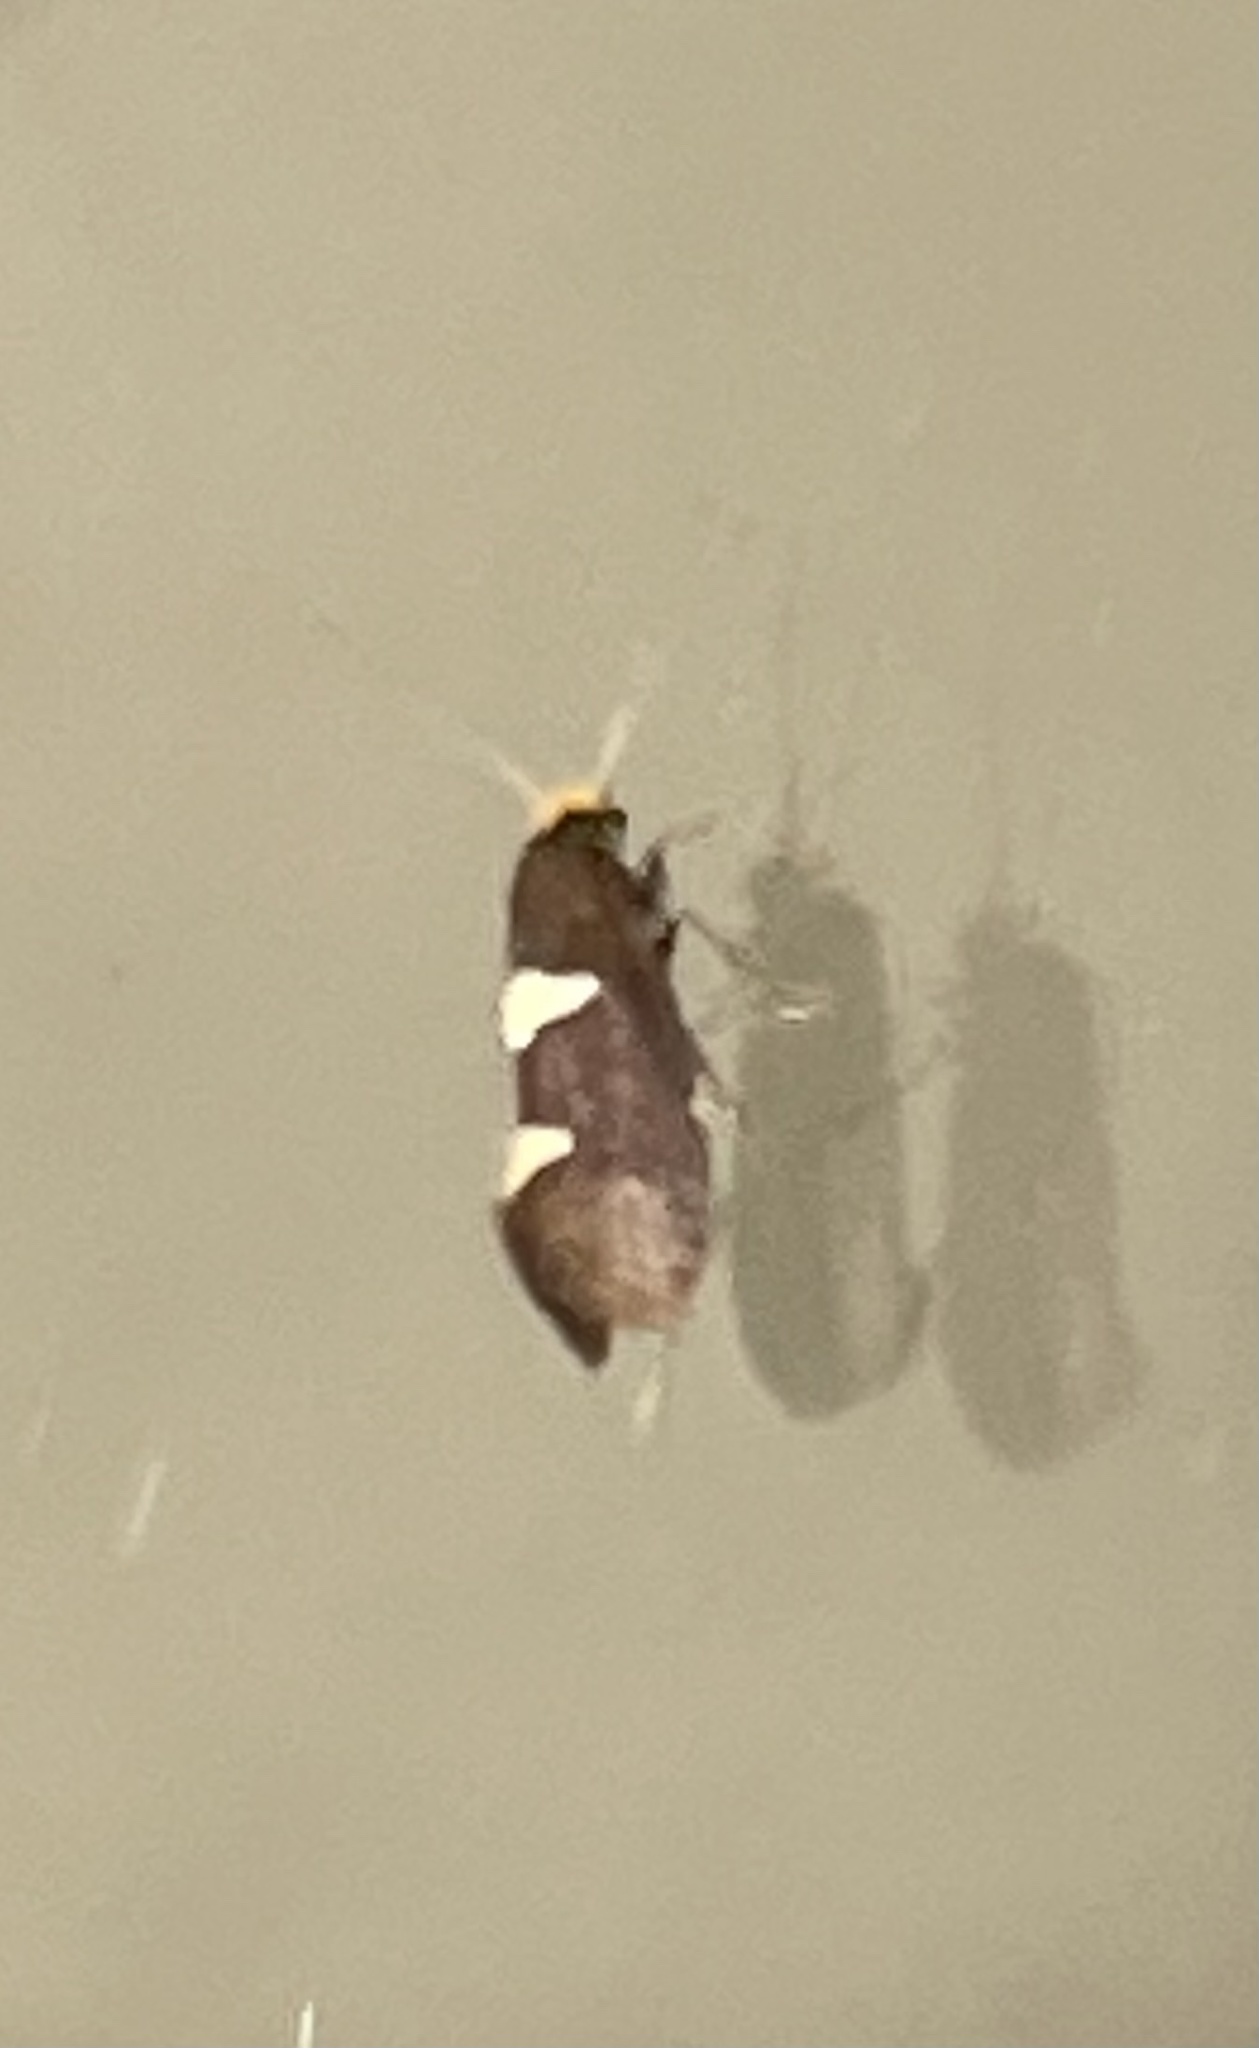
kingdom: Animalia
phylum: Arthropoda
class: Insecta
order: Lepidoptera
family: Incurvariidae
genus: Incurvaria
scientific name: Incurvaria masculella
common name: Feathered leaf-cutter
